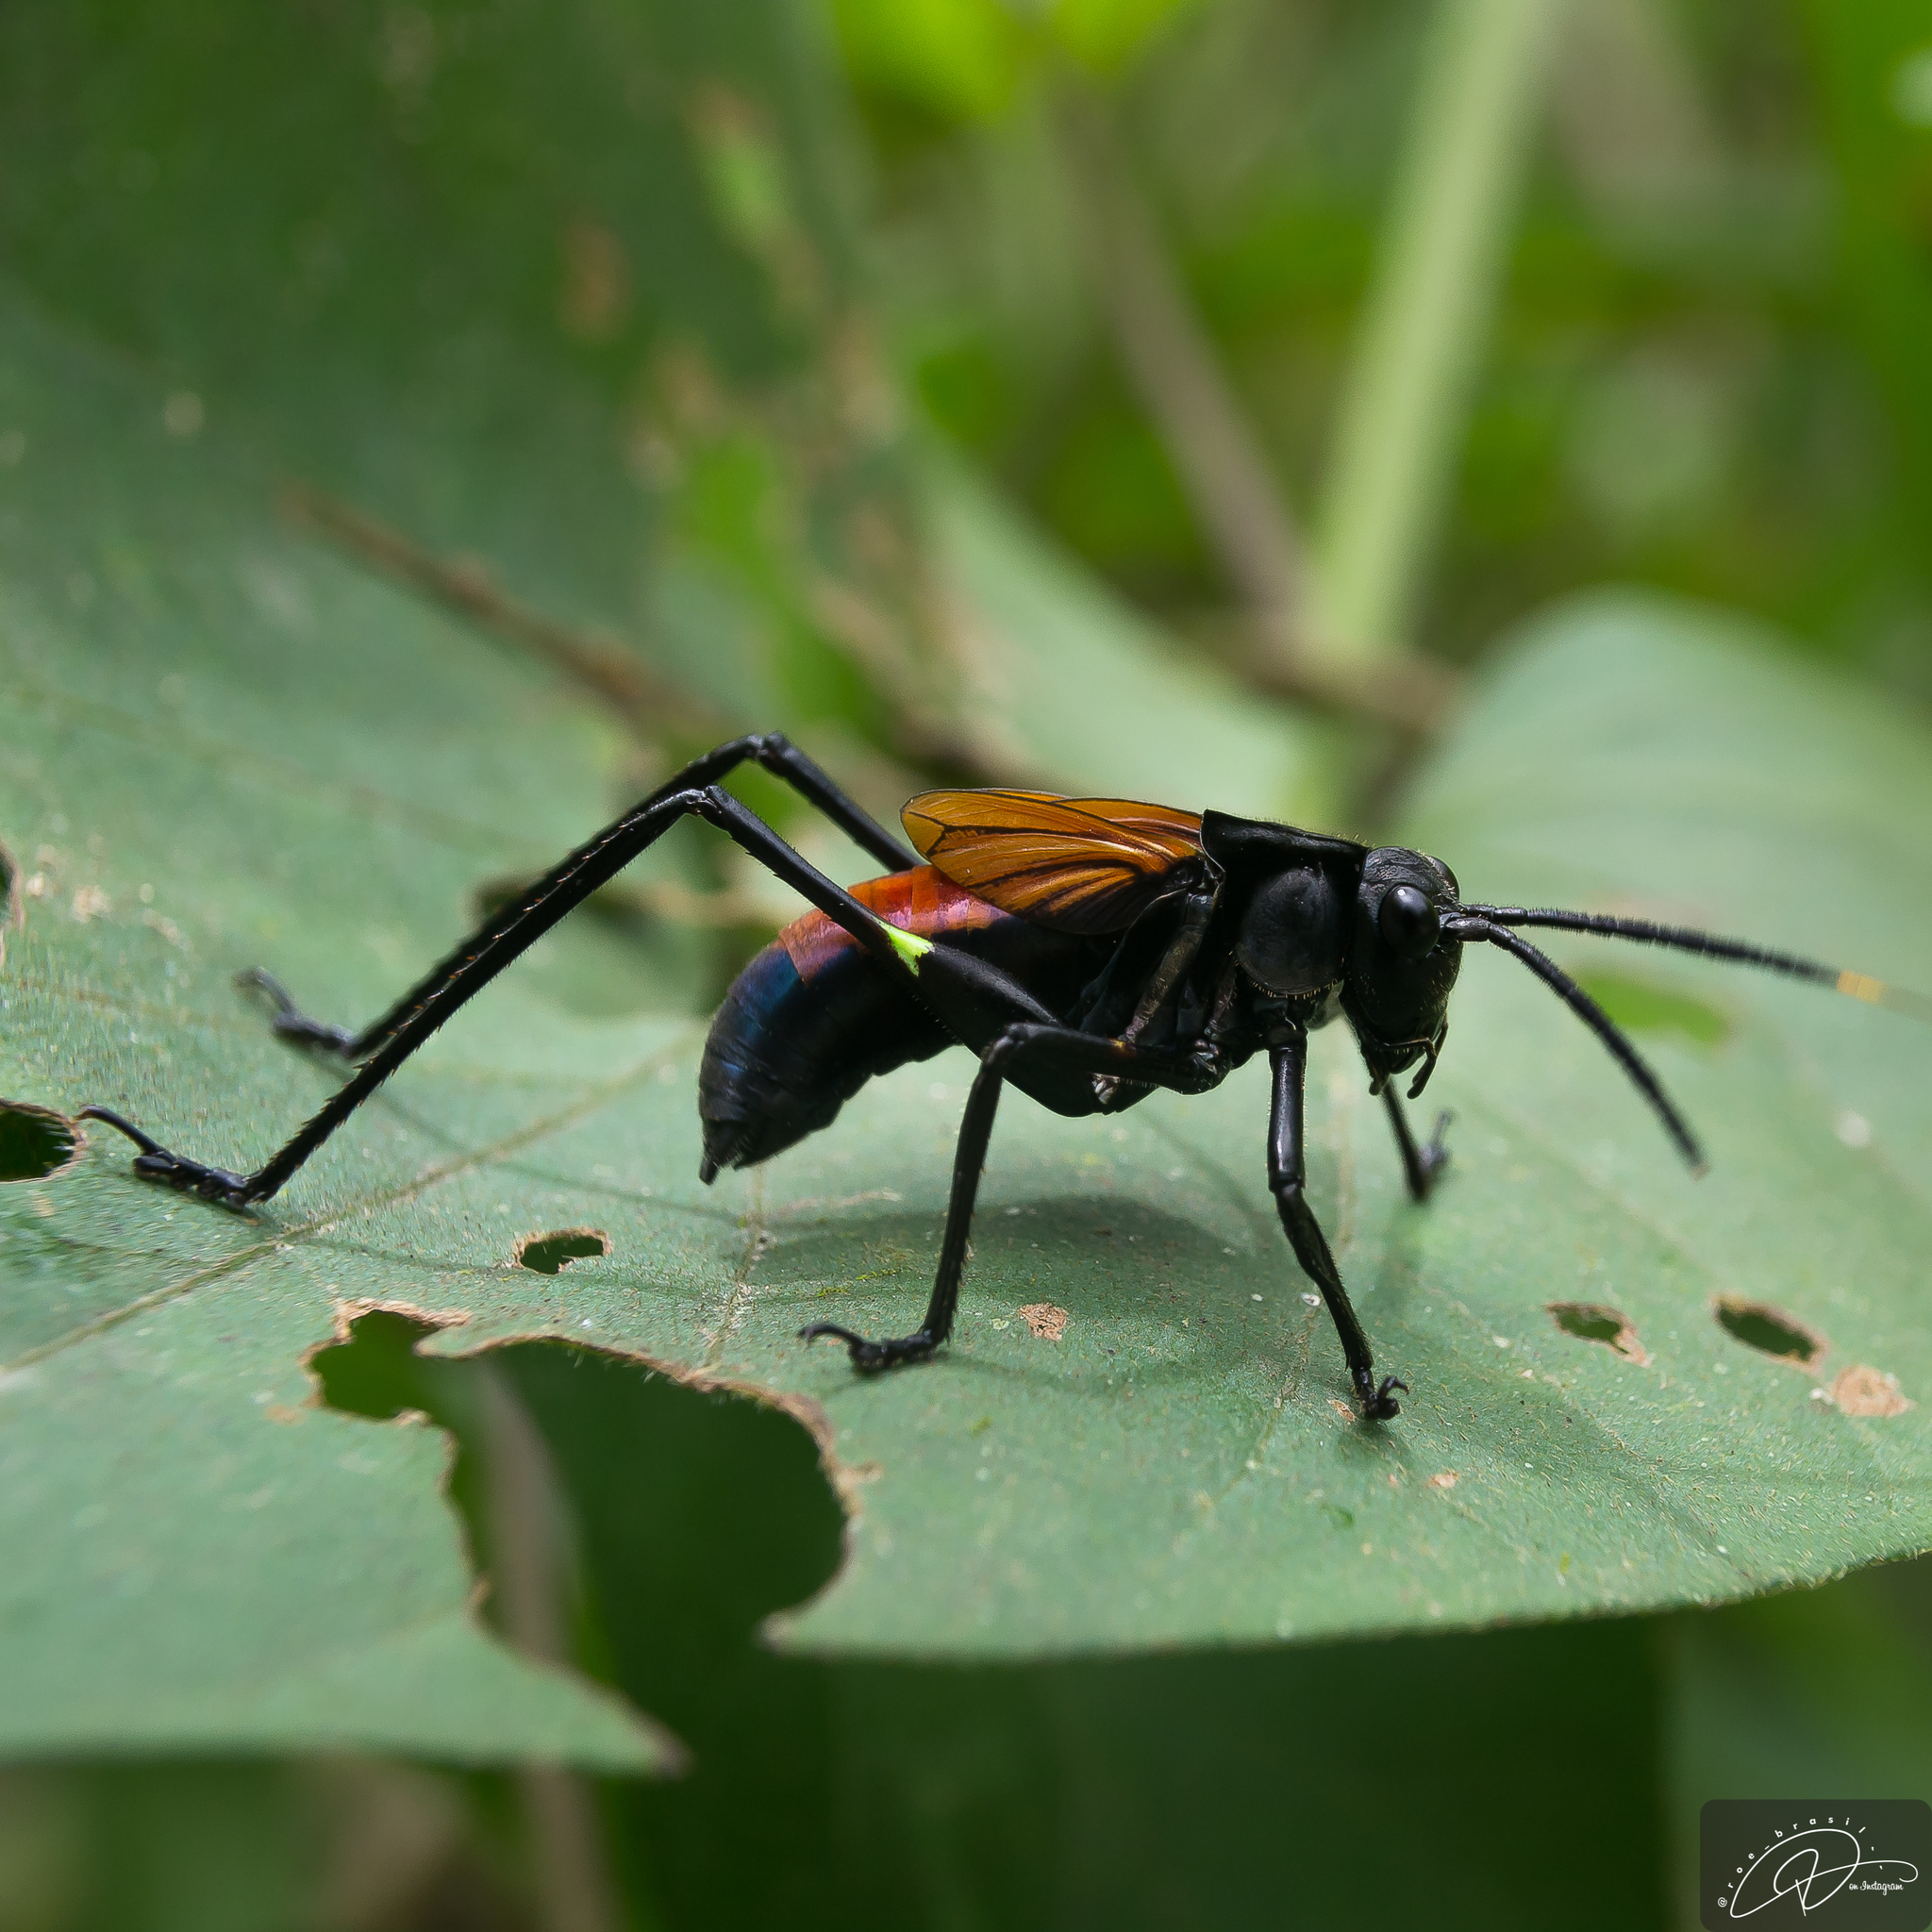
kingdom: Animalia
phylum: Arthropoda
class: Insecta
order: Orthoptera
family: Tettigoniidae
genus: Scaphura
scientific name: Scaphura nigra
